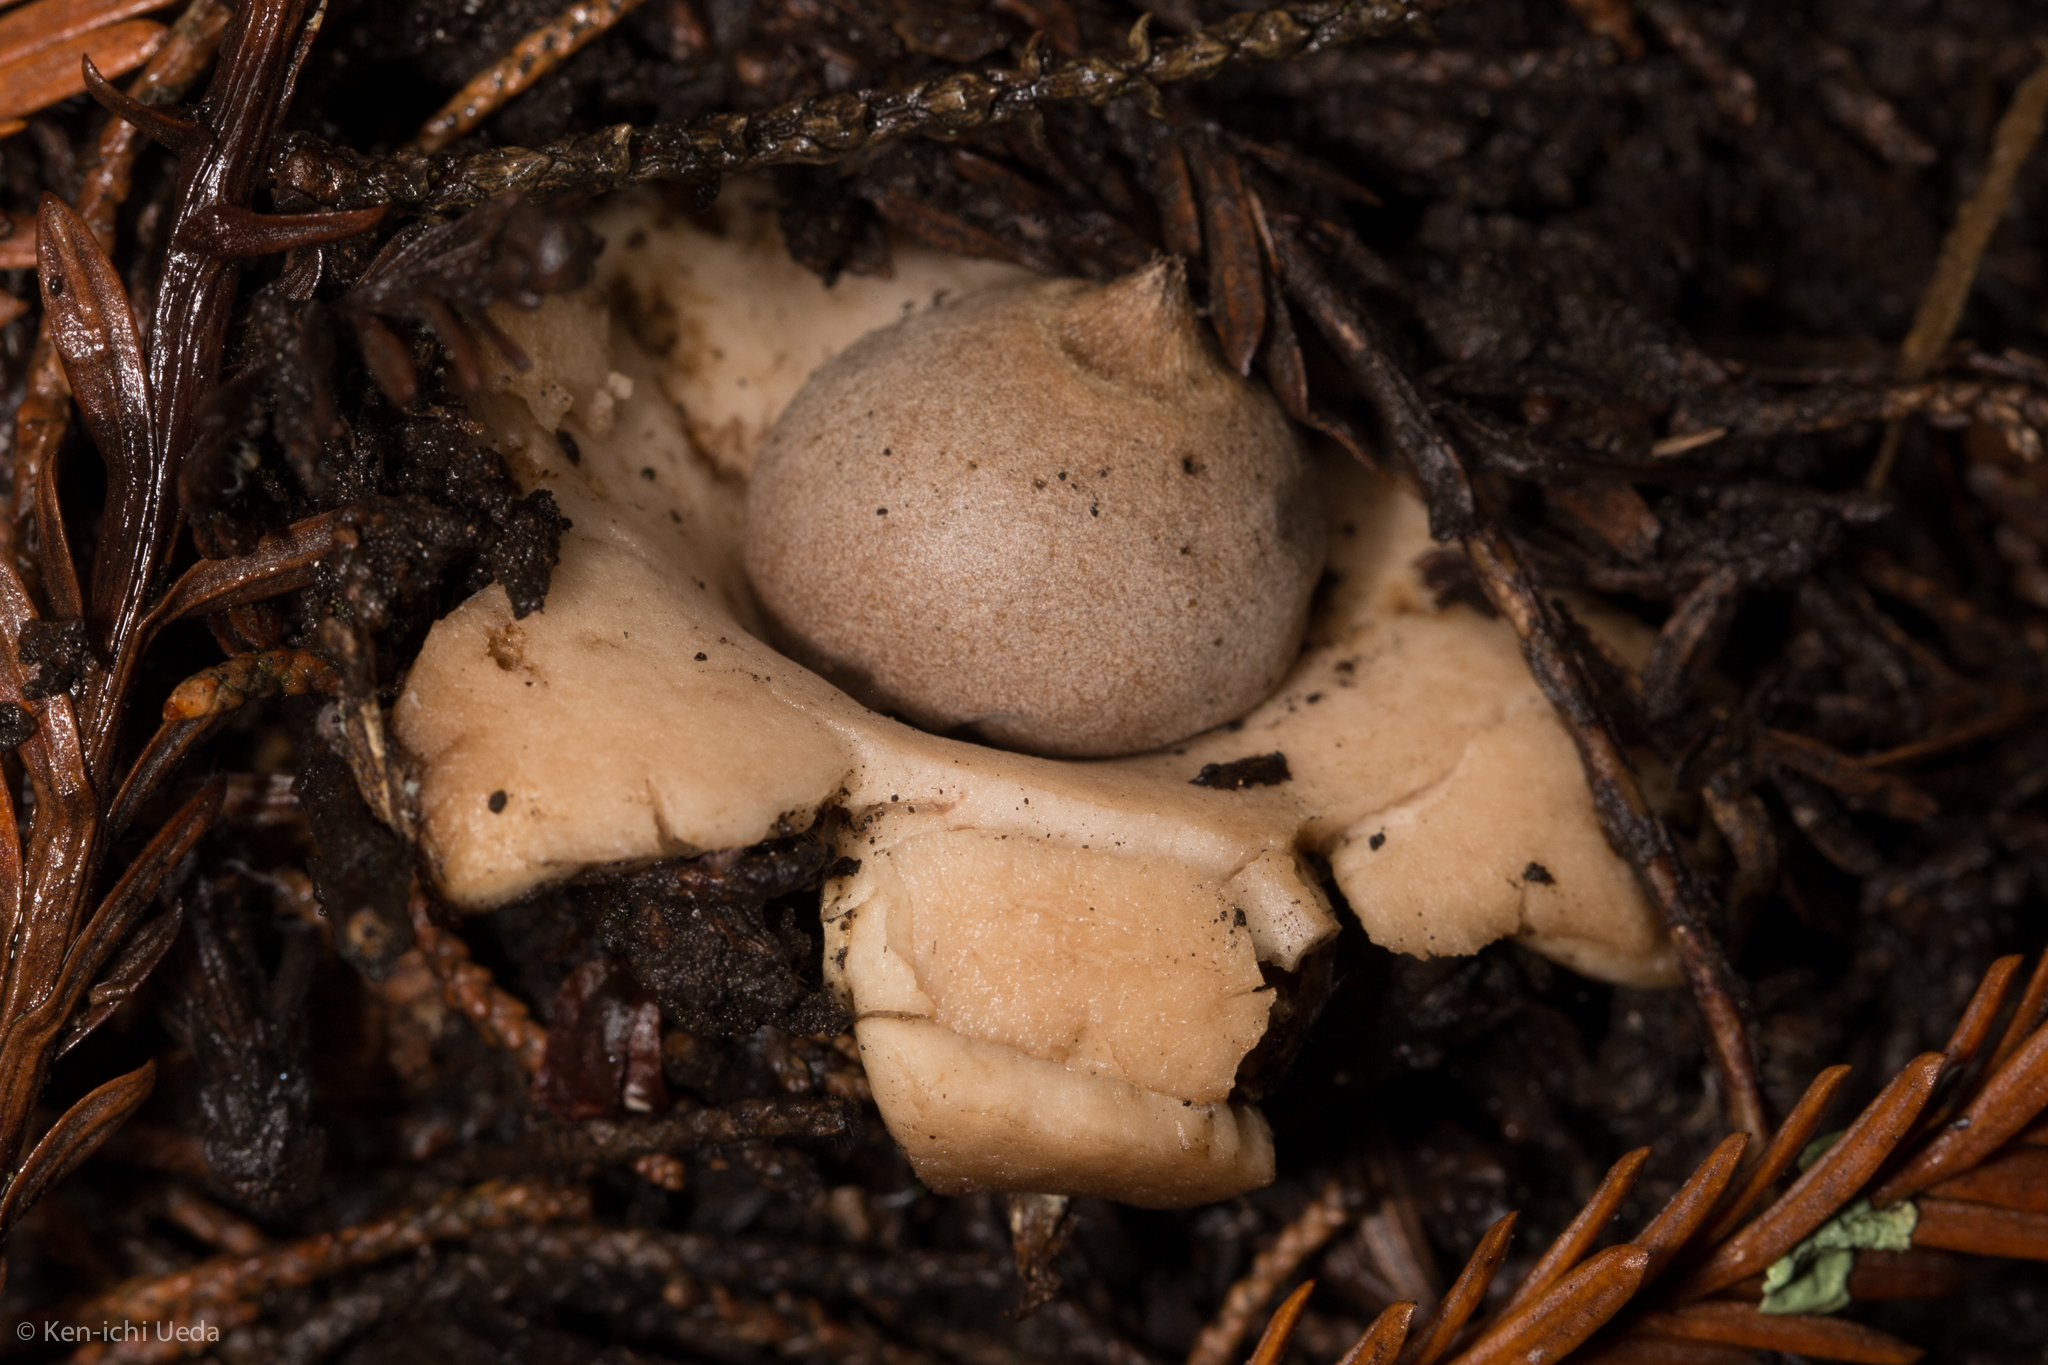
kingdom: Fungi
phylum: Basidiomycota
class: Agaricomycetes
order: Geastrales
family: Geastraceae
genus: Geastrum
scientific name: Geastrum saccatum
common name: Rounded earthstar
